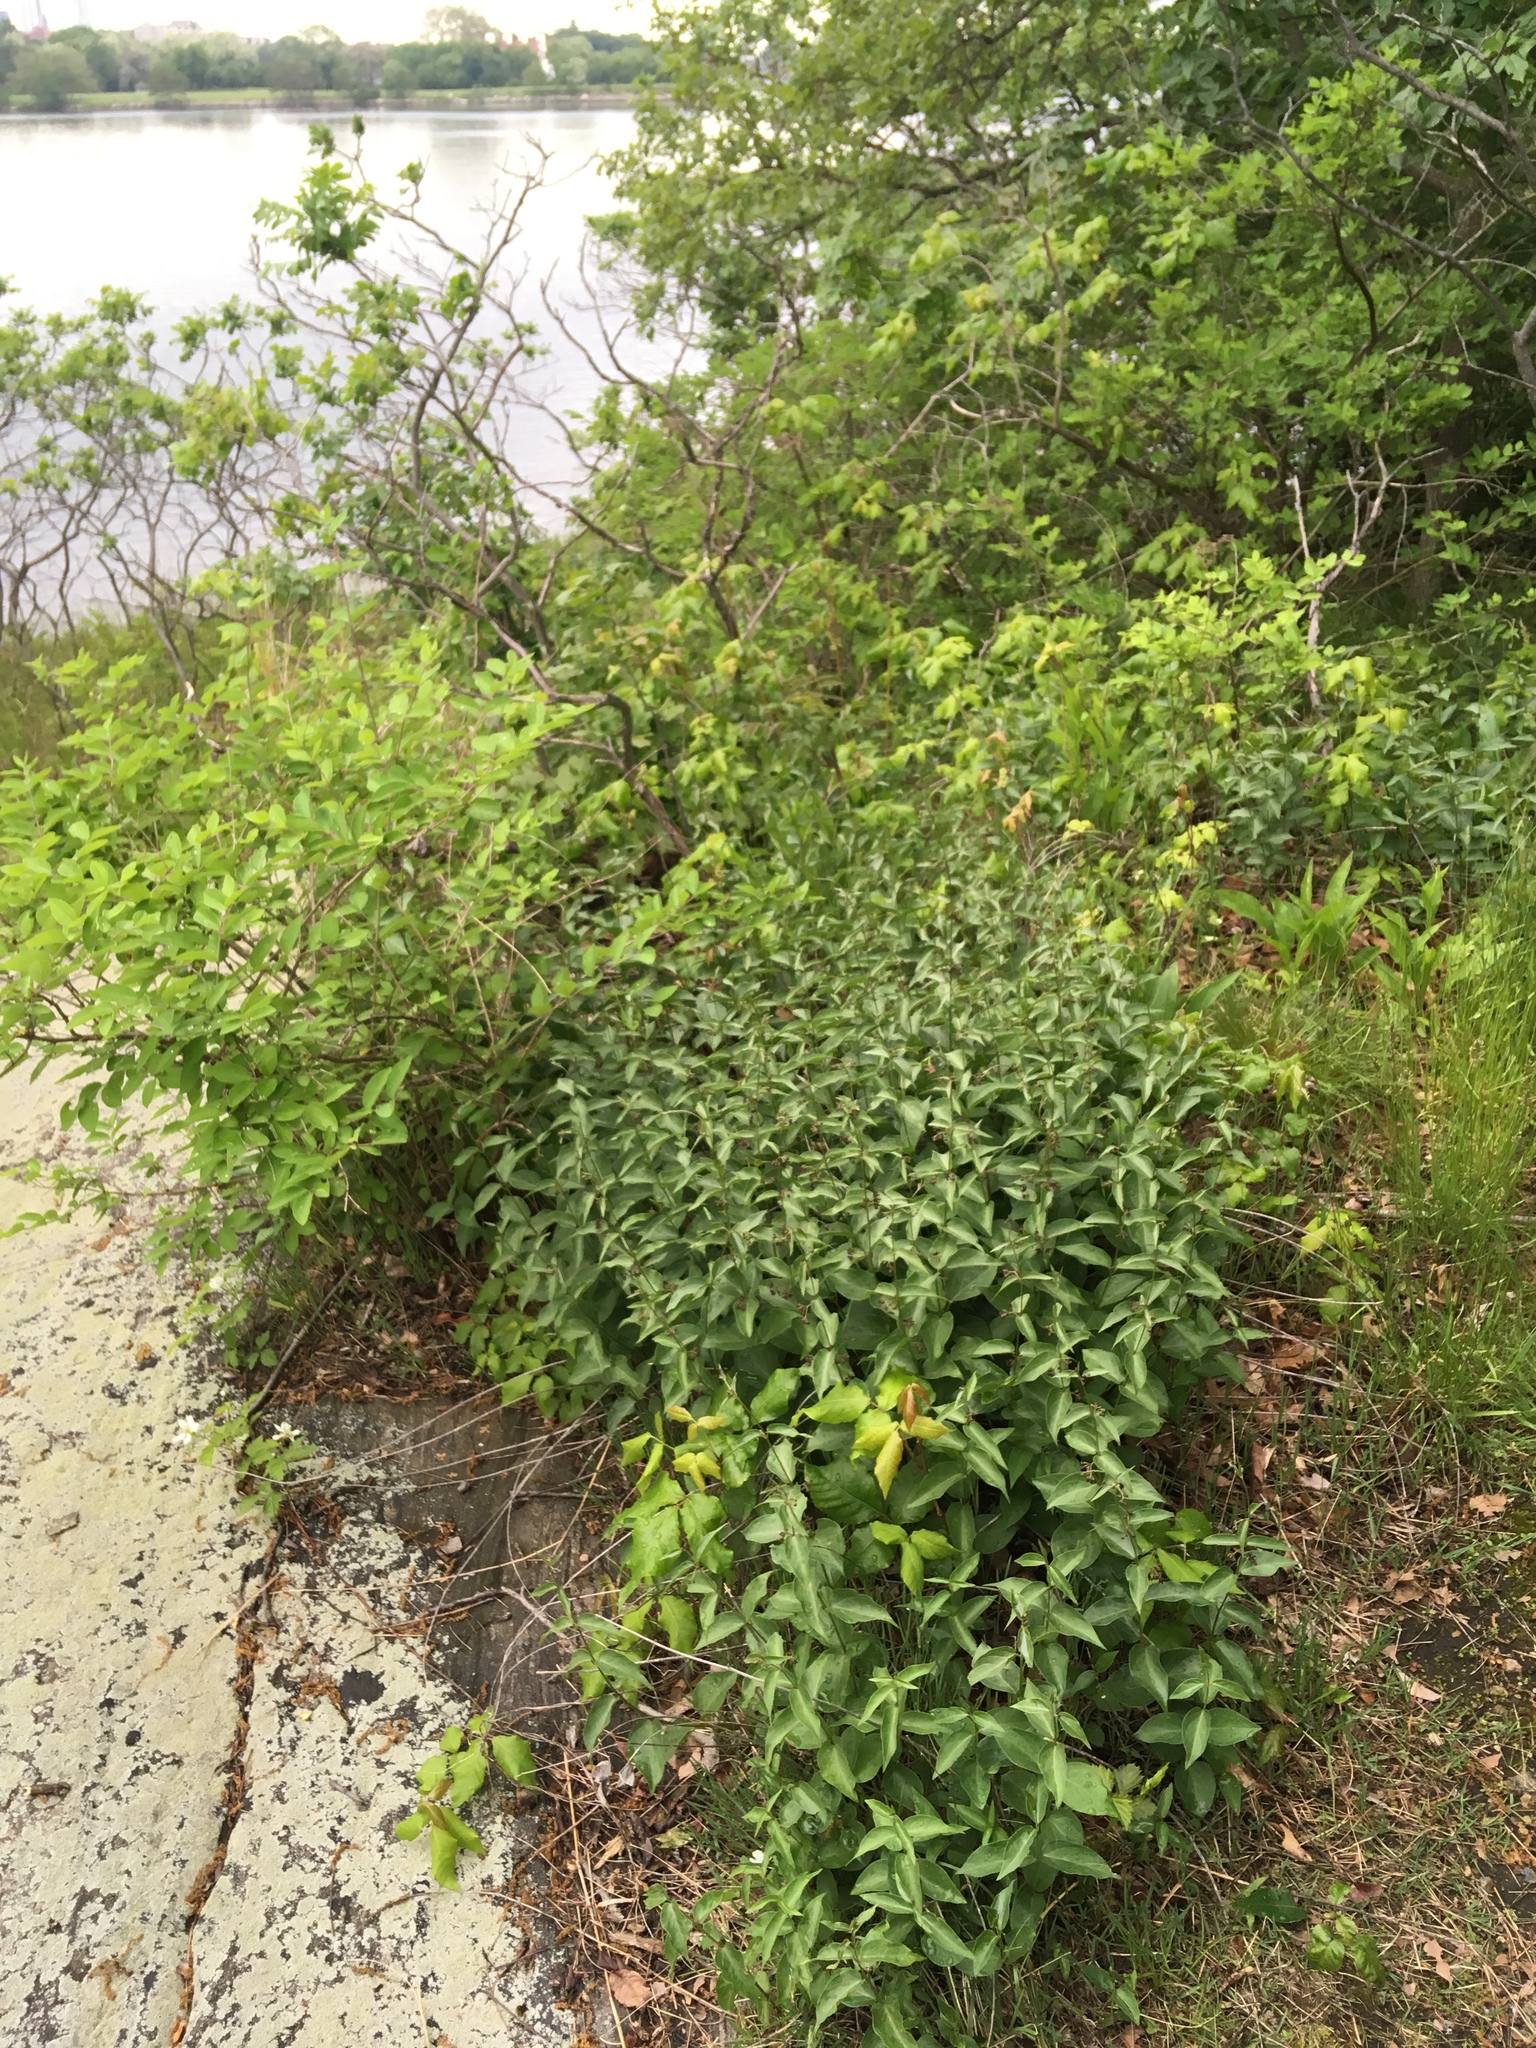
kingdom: Plantae
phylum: Tracheophyta
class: Magnoliopsida
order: Gentianales
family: Apocynaceae
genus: Vincetoxicum
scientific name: Vincetoxicum nigrum
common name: Black swallow-wort
